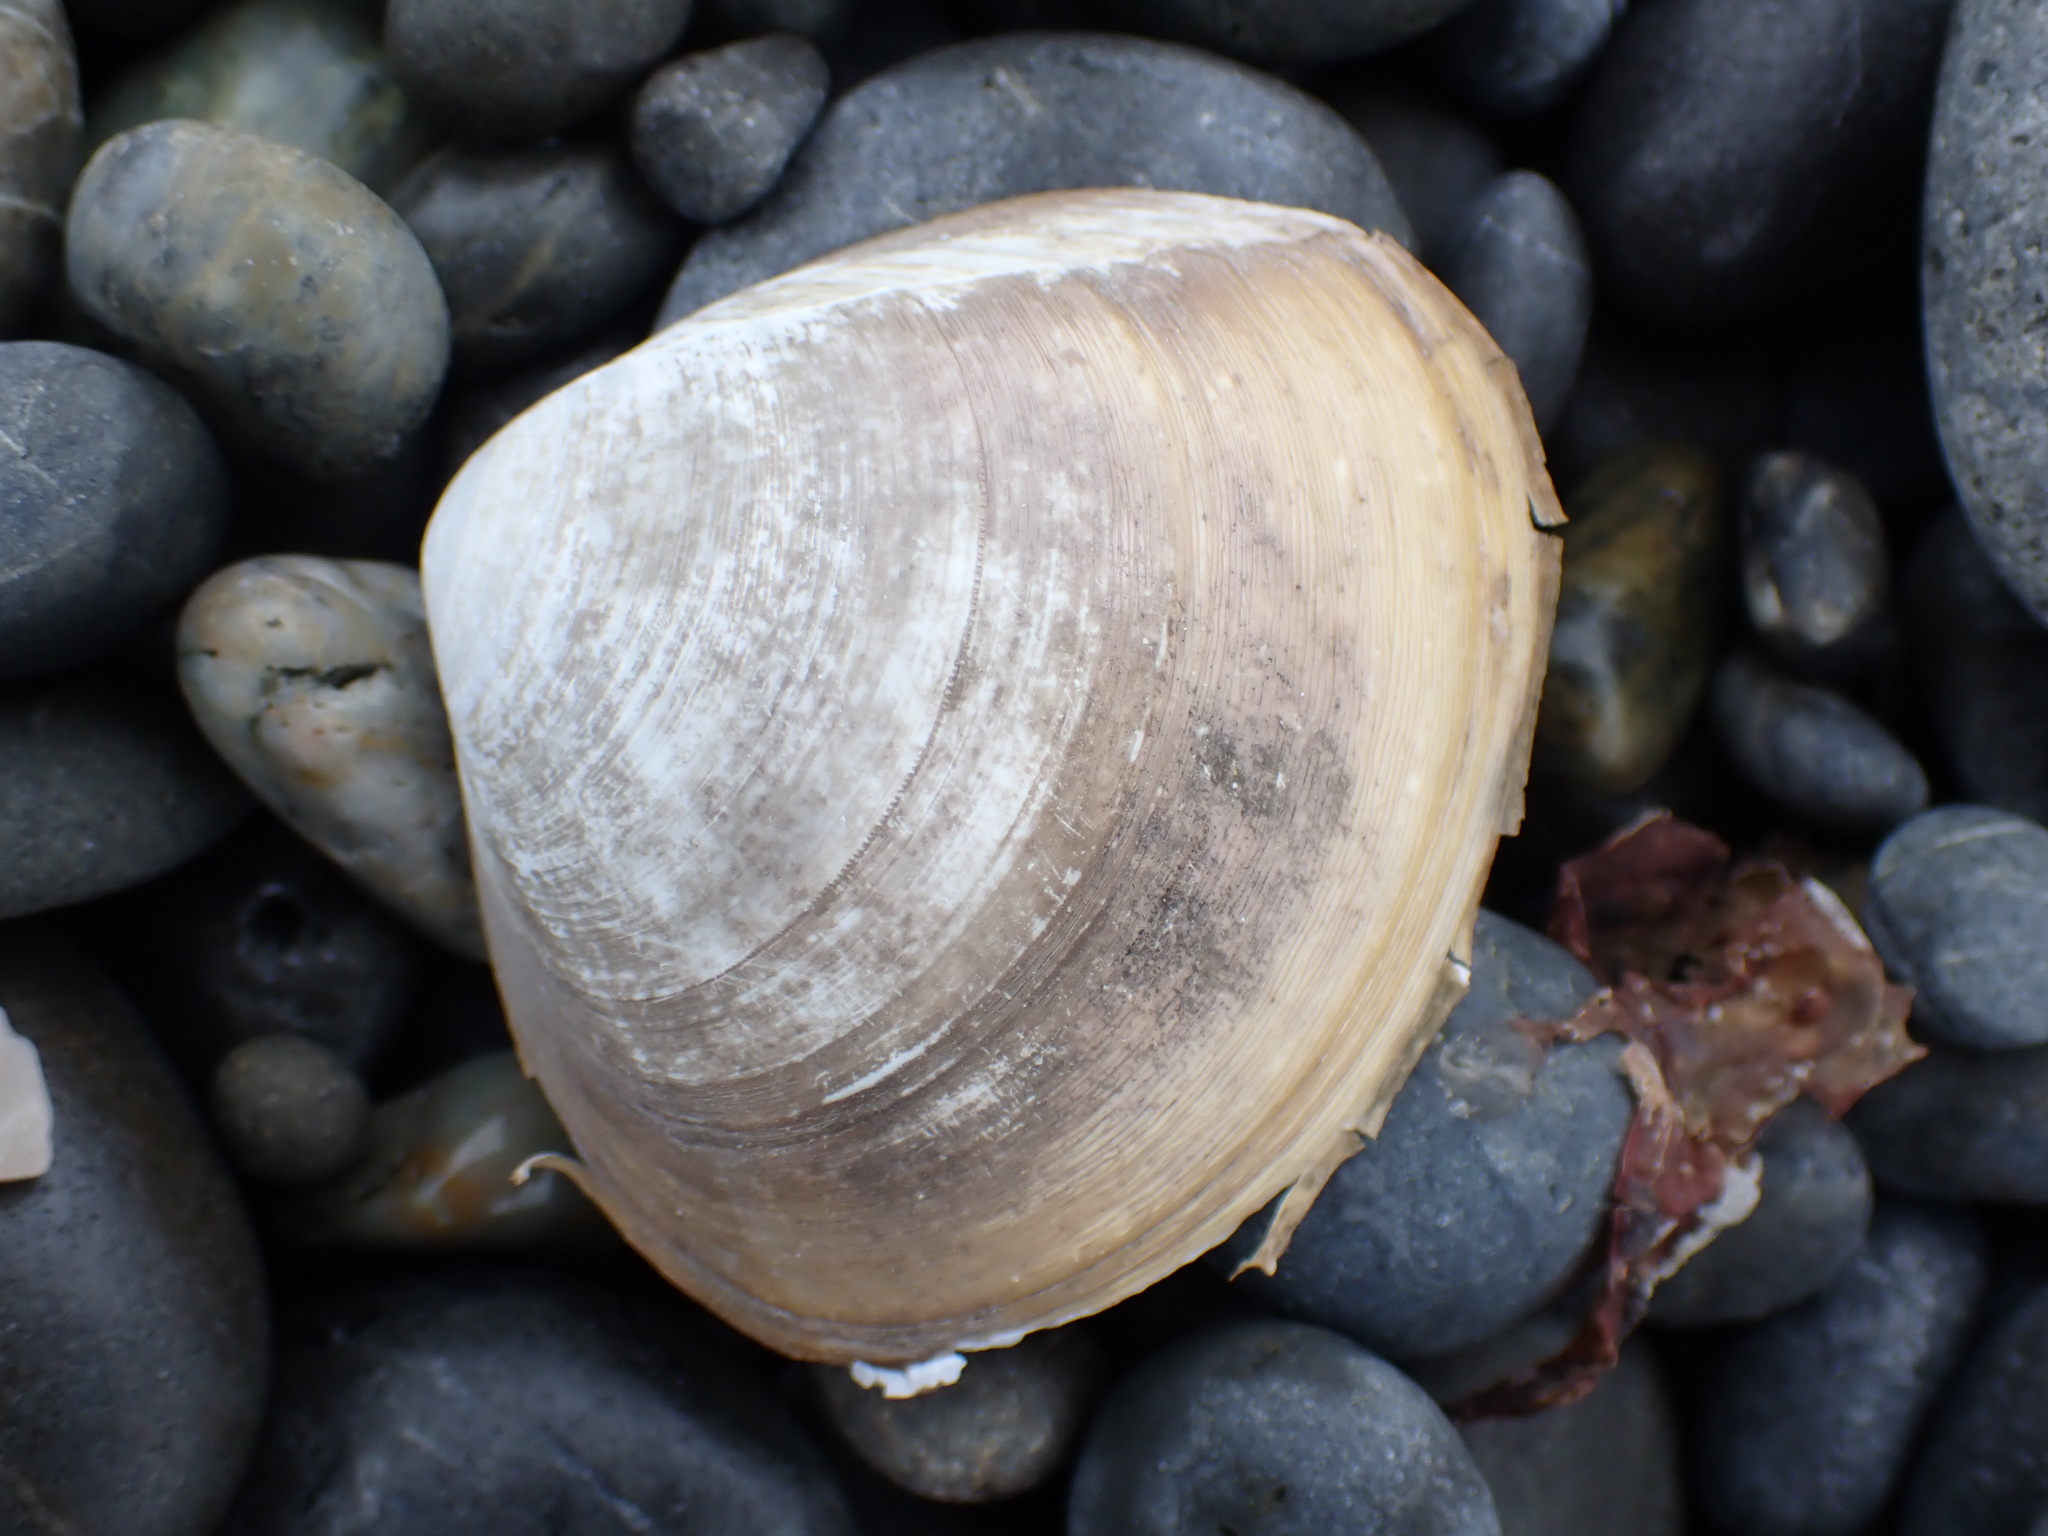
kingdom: Animalia
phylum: Mollusca
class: Bivalvia
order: Venerida
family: Mactridae
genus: Spisula
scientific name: Spisula discors
